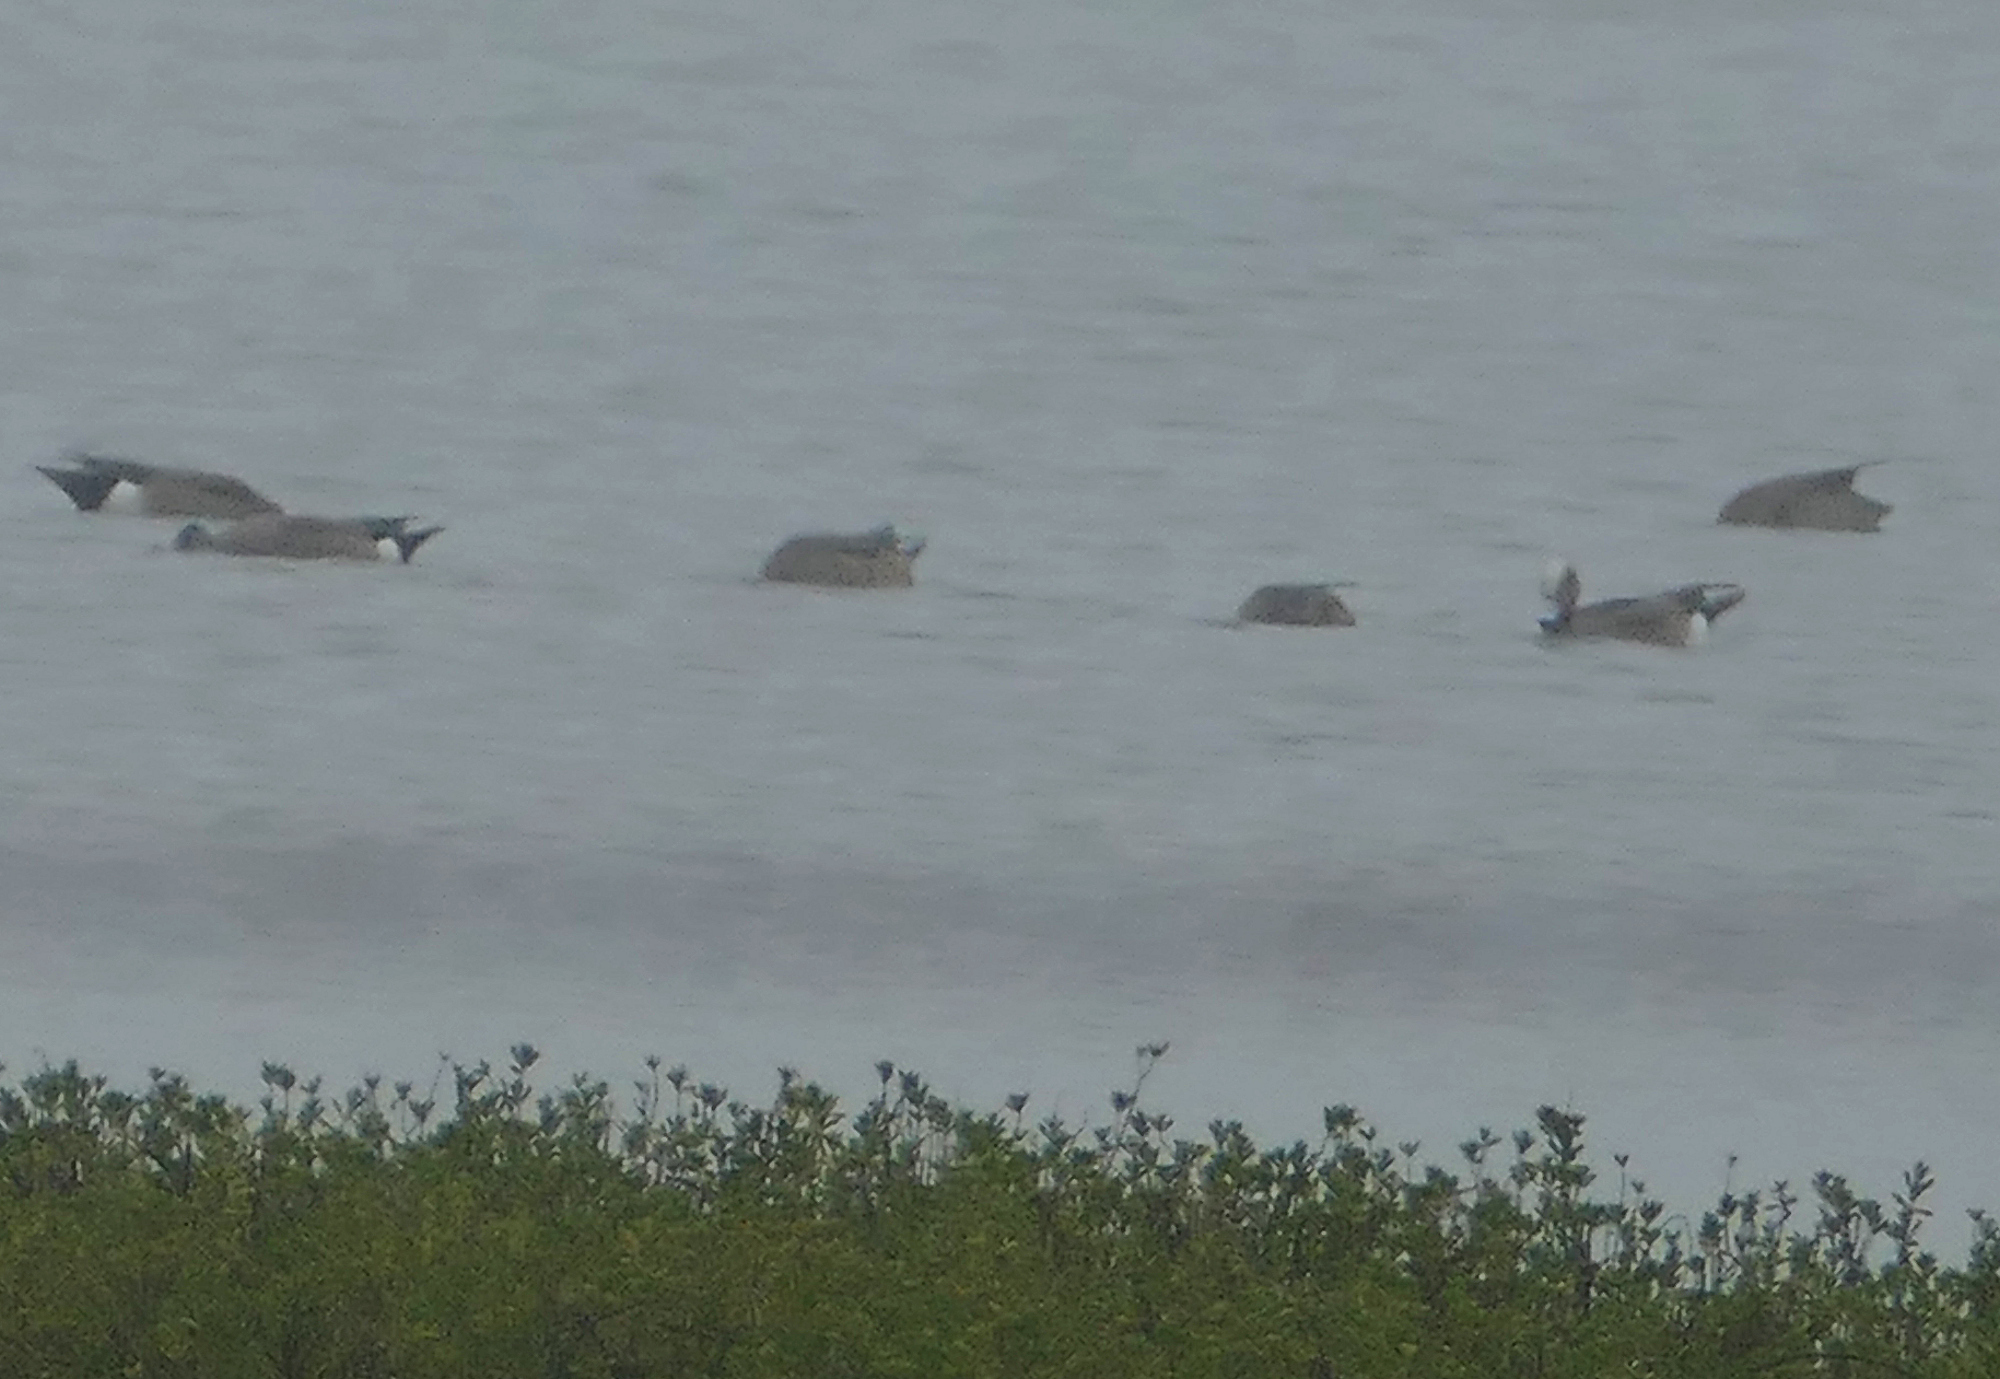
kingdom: Animalia
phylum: Chordata
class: Aves
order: Anseriformes
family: Anatidae
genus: Mareca
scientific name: Mareca americana
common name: American wigeon
